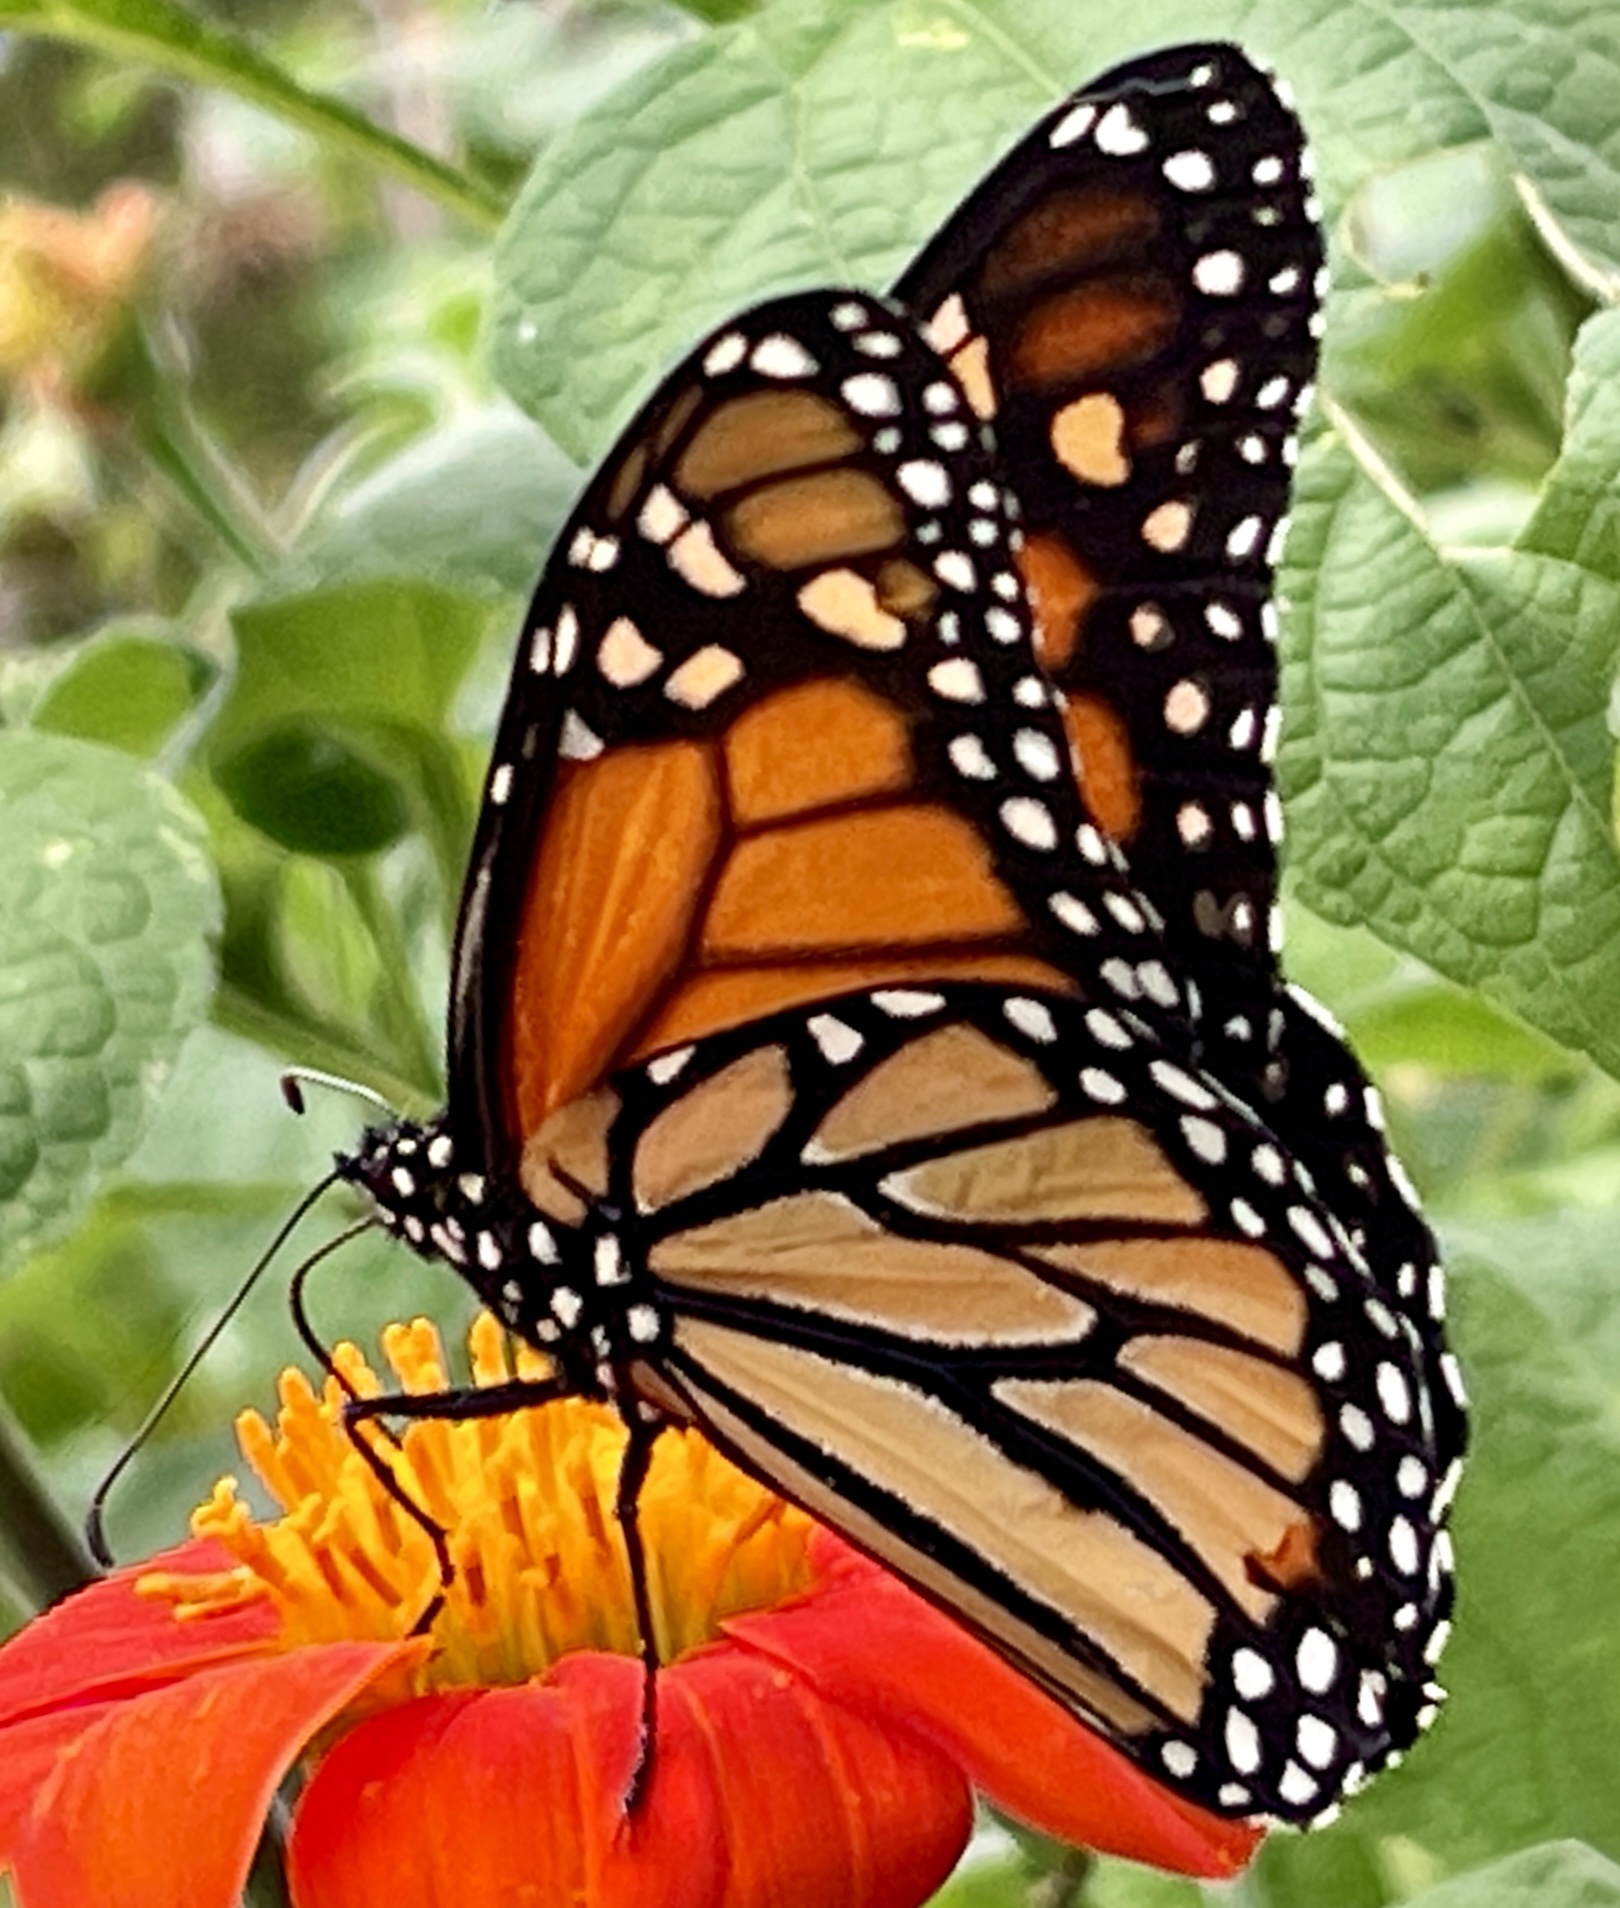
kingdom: Animalia
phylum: Arthropoda
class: Insecta
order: Lepidoptera
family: Nymphalidae
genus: Danaus
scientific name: Danaus plexippus
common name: Monarch
